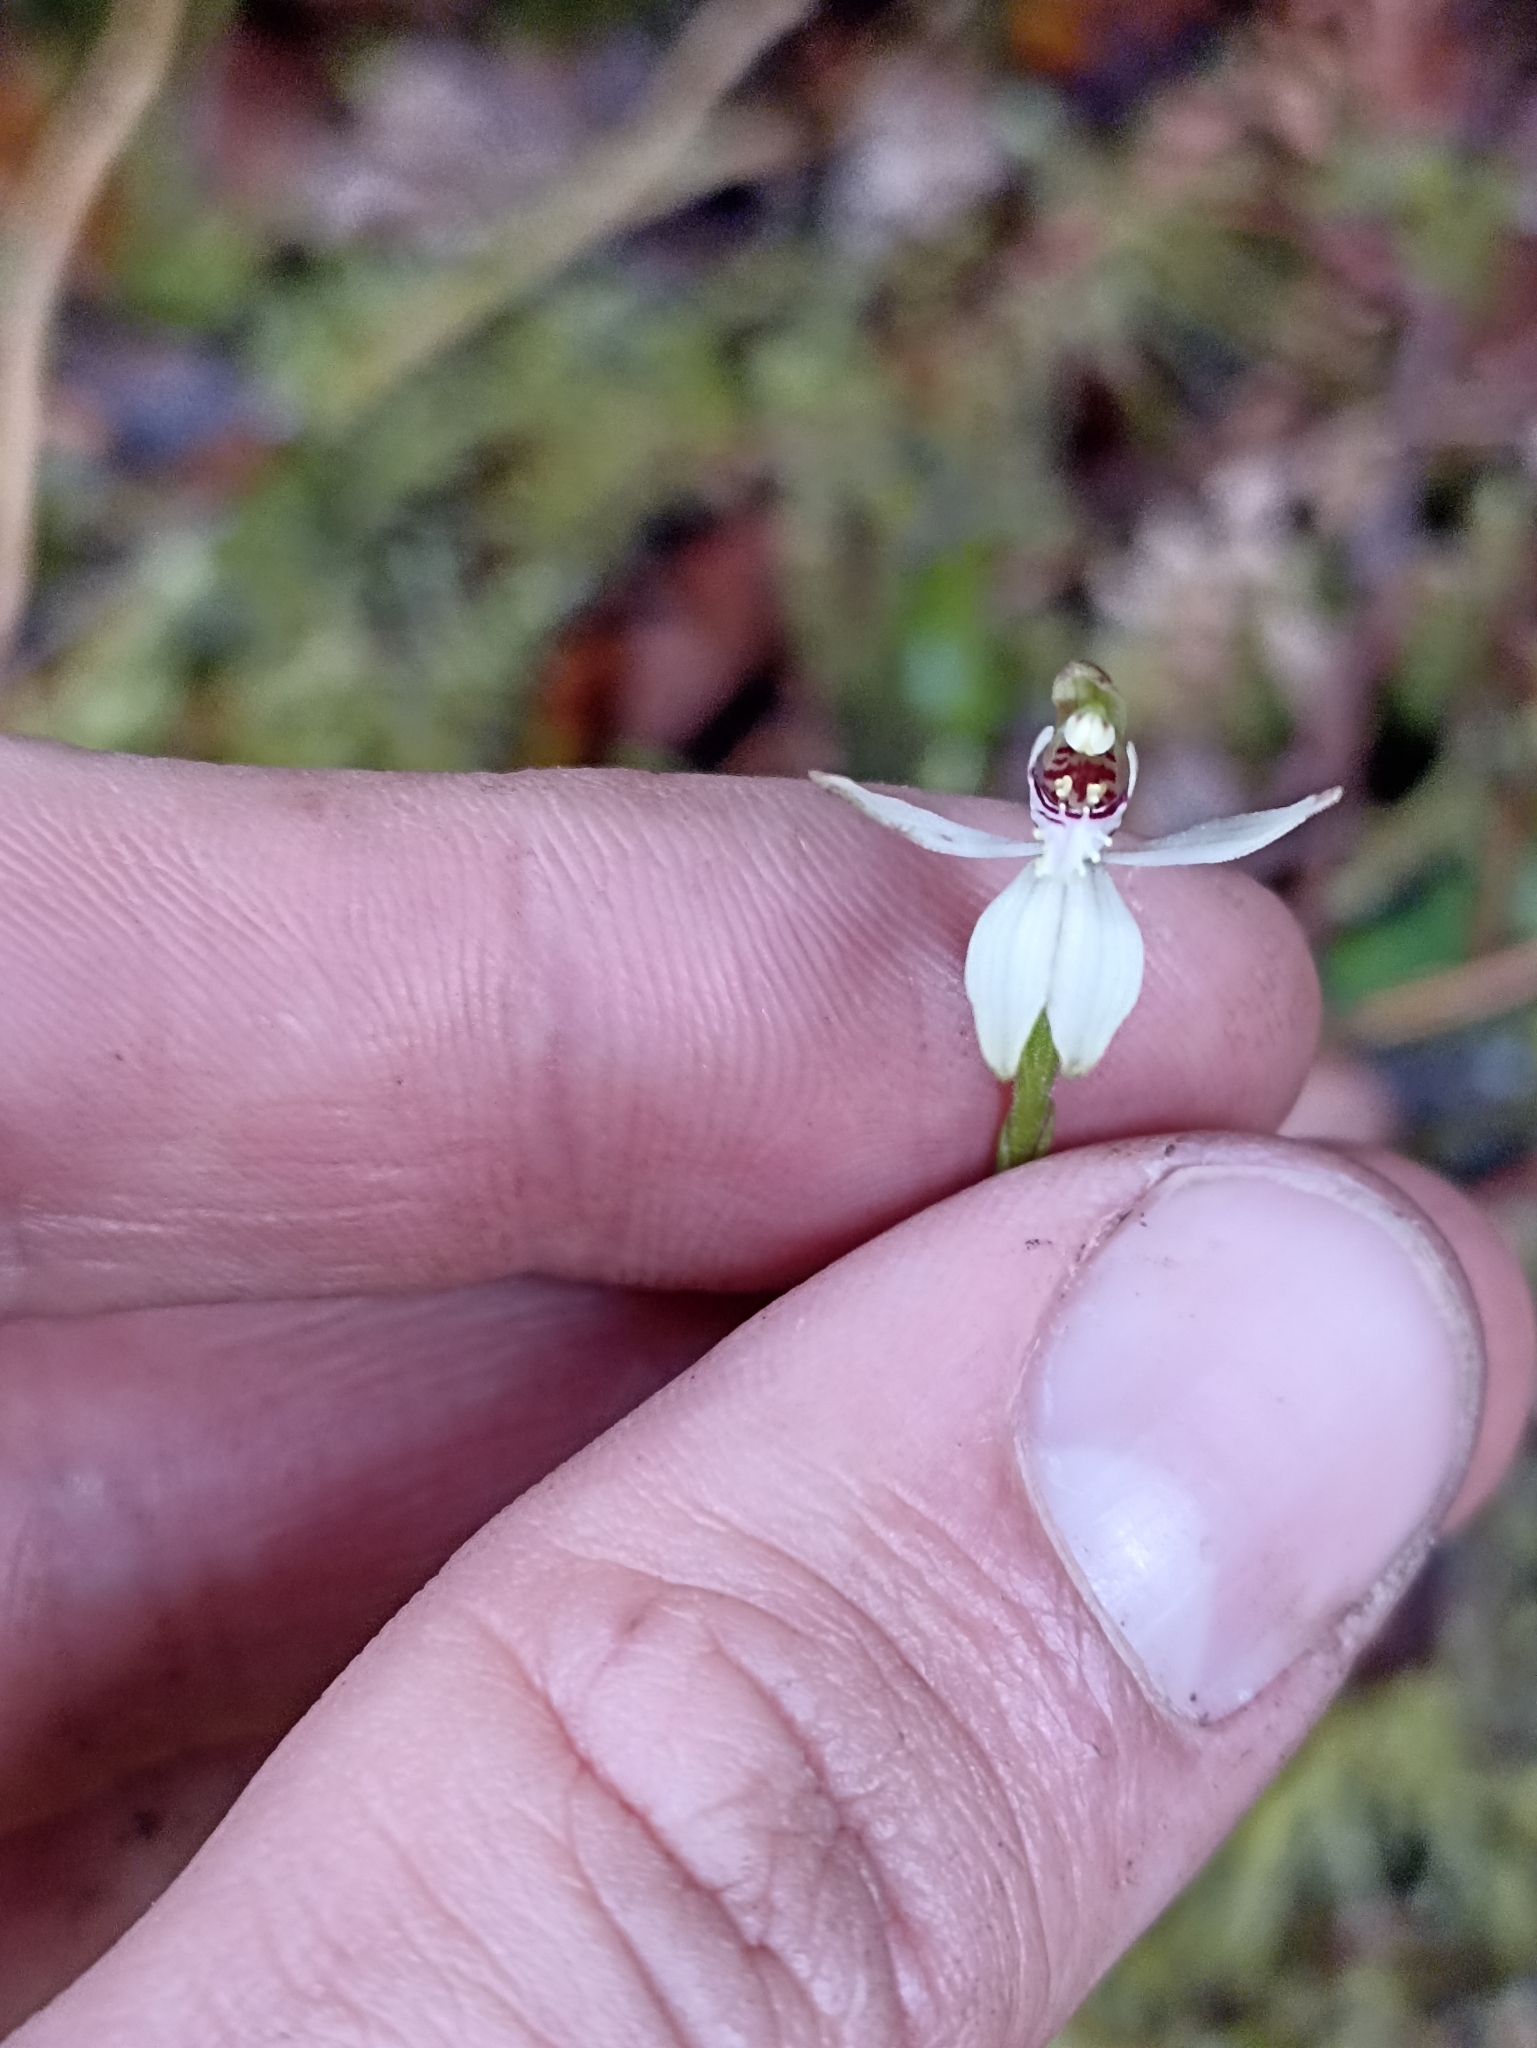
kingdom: Plantae
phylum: Tracheophyta
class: Liliopsida
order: Asparagales
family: Orchidaceae
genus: Caladenia
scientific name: Caladenia chlorostyla
